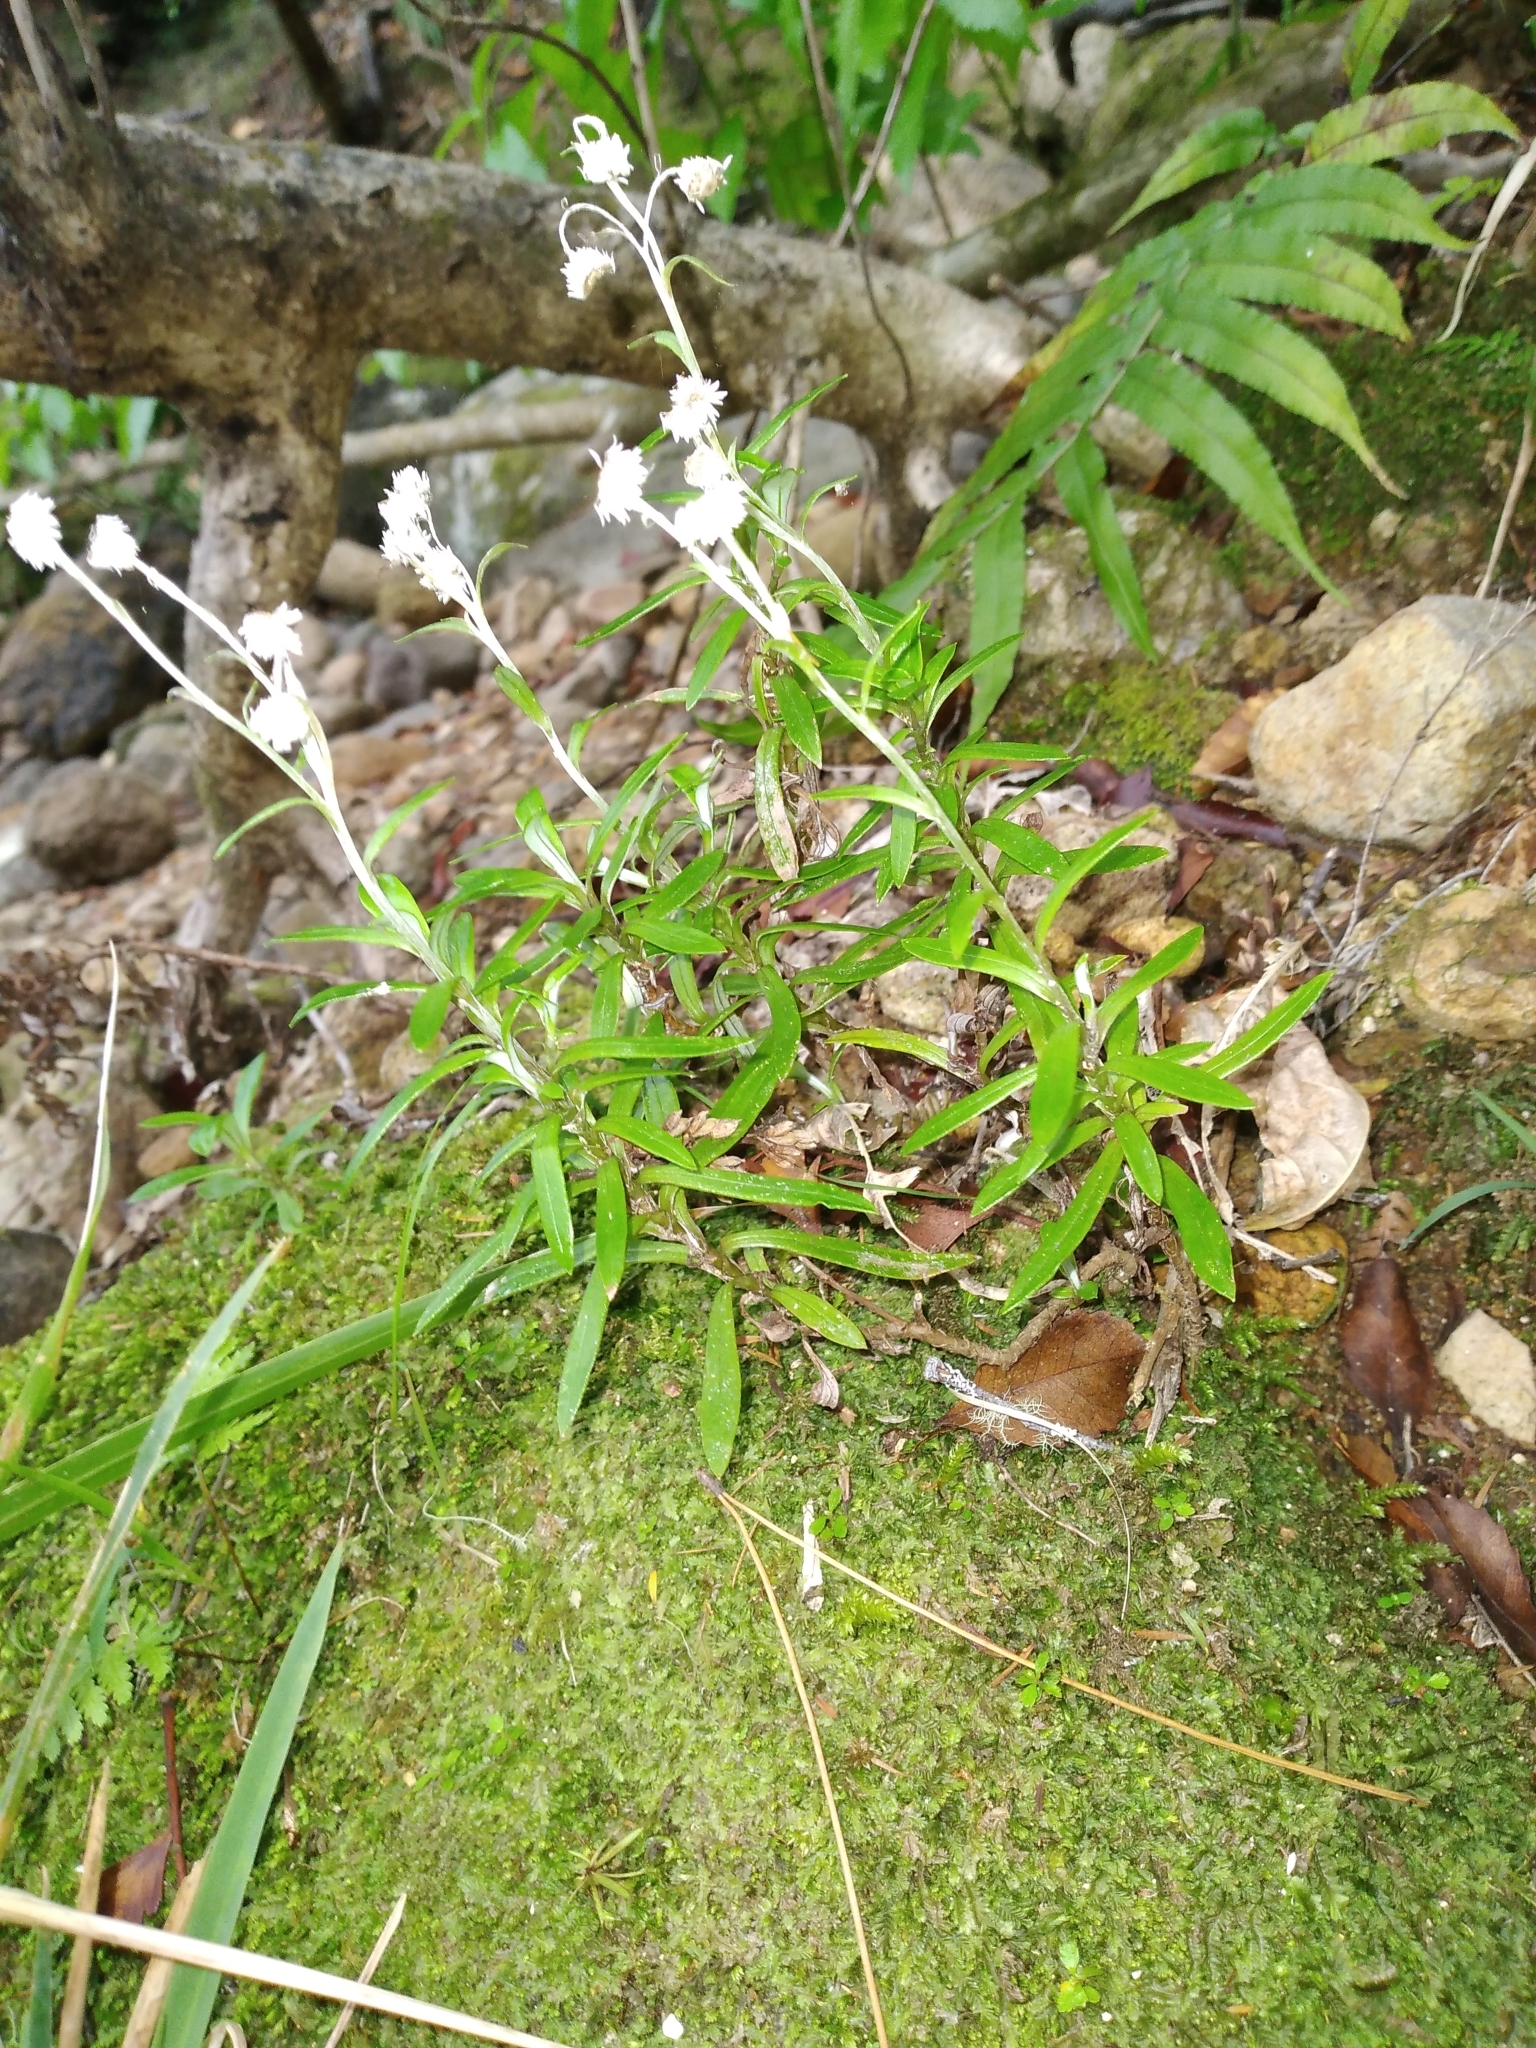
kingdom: Plantae
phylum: Tracheophyta
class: Magnoliopsida
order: Asterales
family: Asteraceae
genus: Anaphalioides
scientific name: Anaphalioides trinervis
